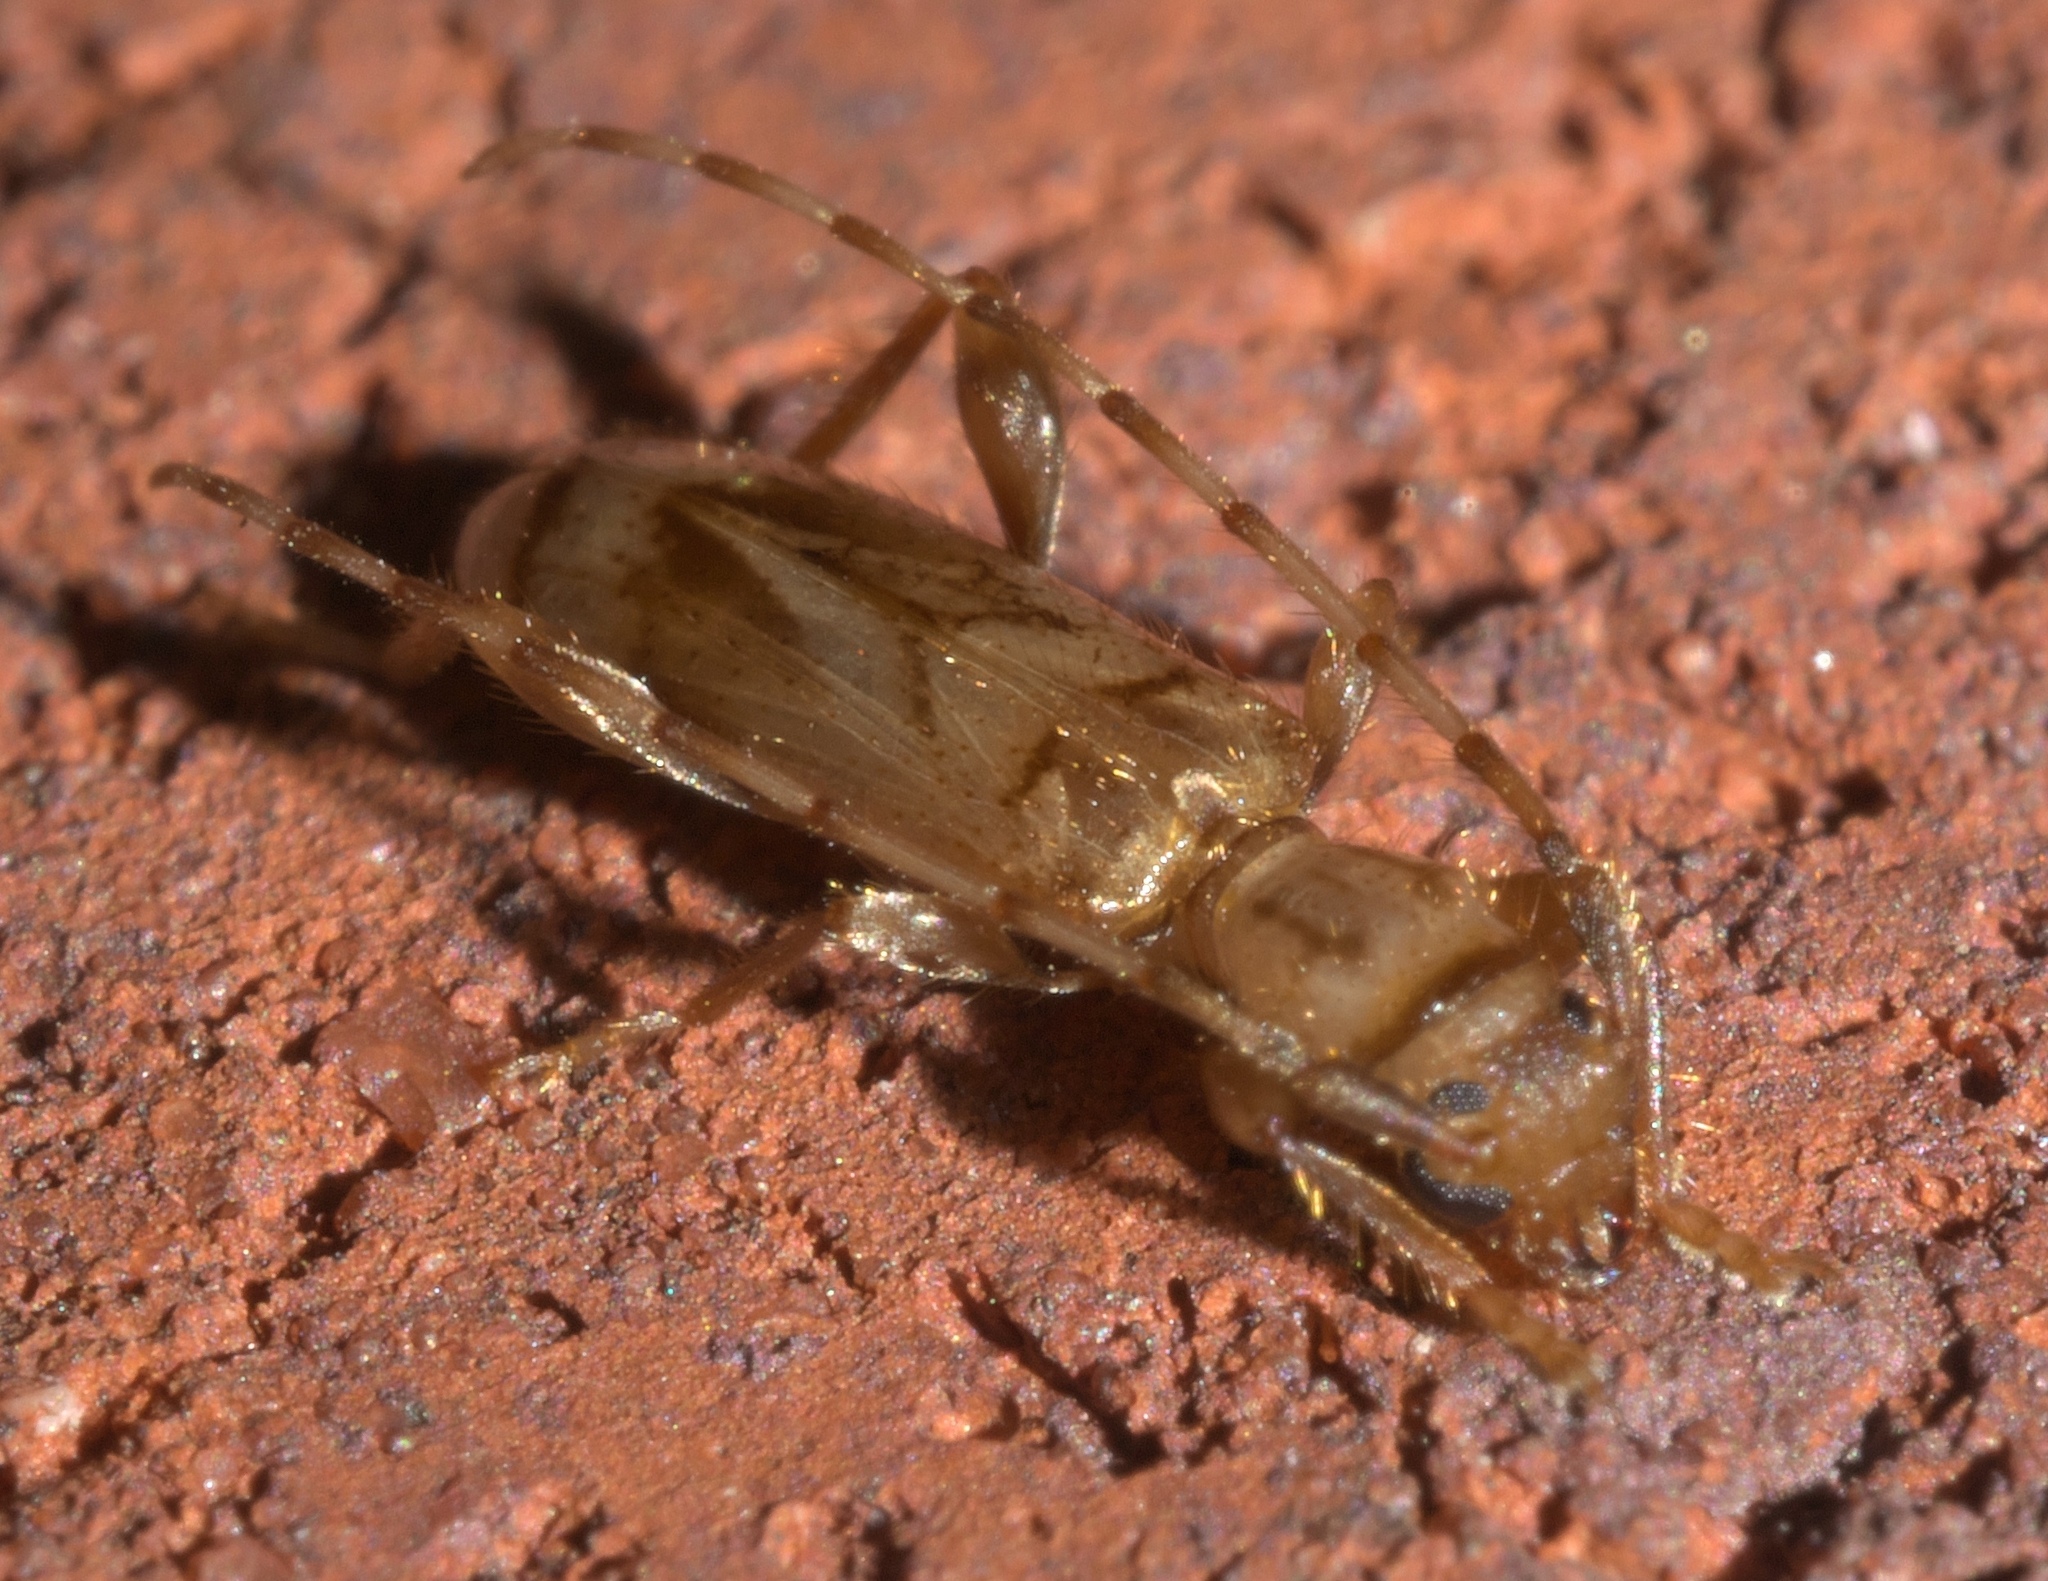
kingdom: Animalia
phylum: Arthropoda
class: Insecta
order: Coleoptera
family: Cerambycidae
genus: Obrium
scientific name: Obrium maculatum
